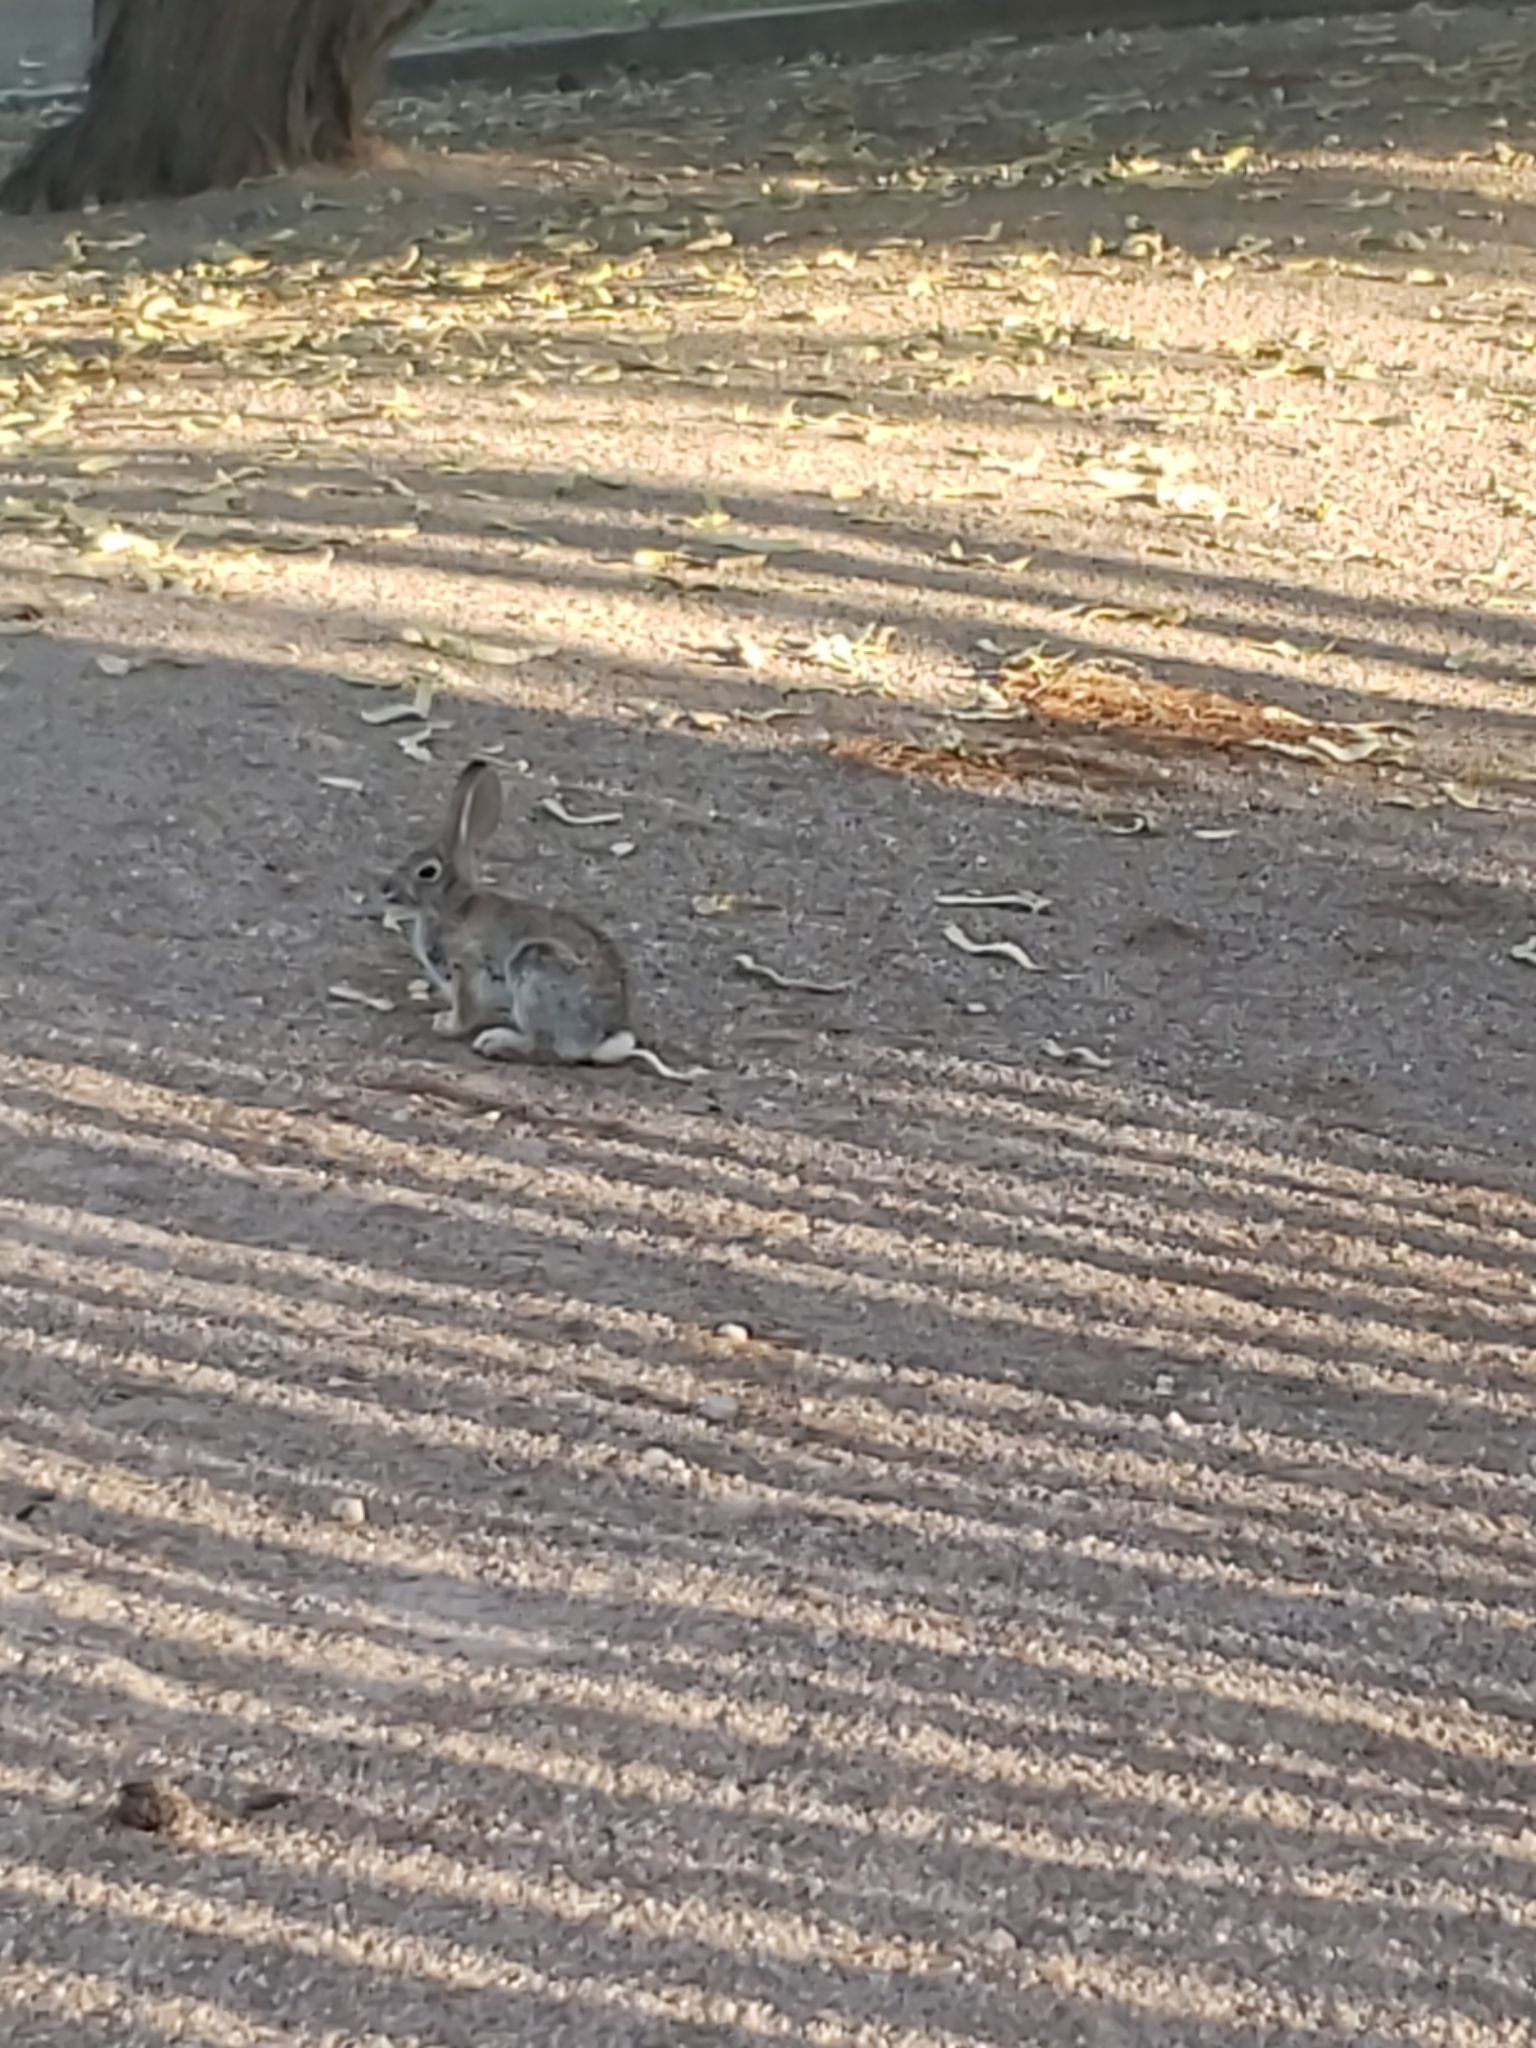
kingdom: Animalia
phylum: Chordata
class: Mammalia
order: Lagomorpha
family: Leporidae
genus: Sylvilagus
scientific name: Sylvilagus audubonii
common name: Desert cottontail
